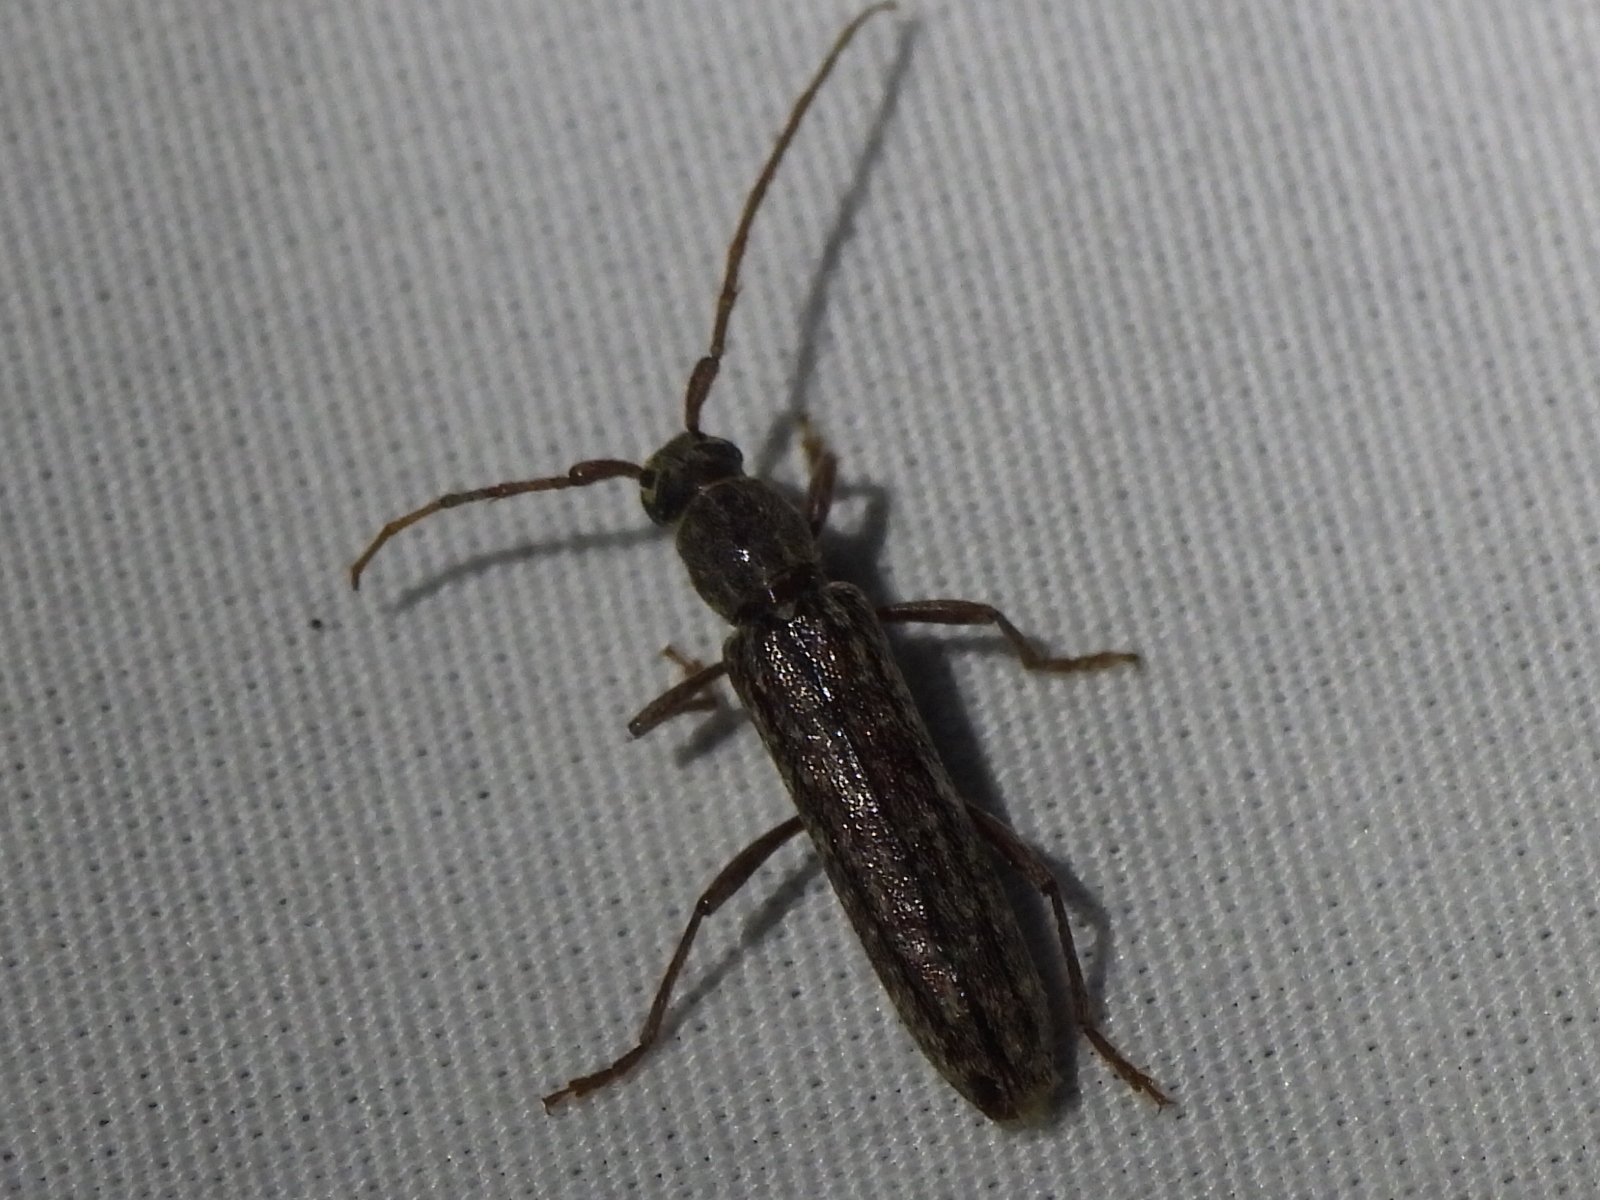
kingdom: Animalia
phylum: Arthropoda
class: Insecta
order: Coleoptera
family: Cerambycidae
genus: Anelaphus
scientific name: Anelaphus villosus
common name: Twig pruner
